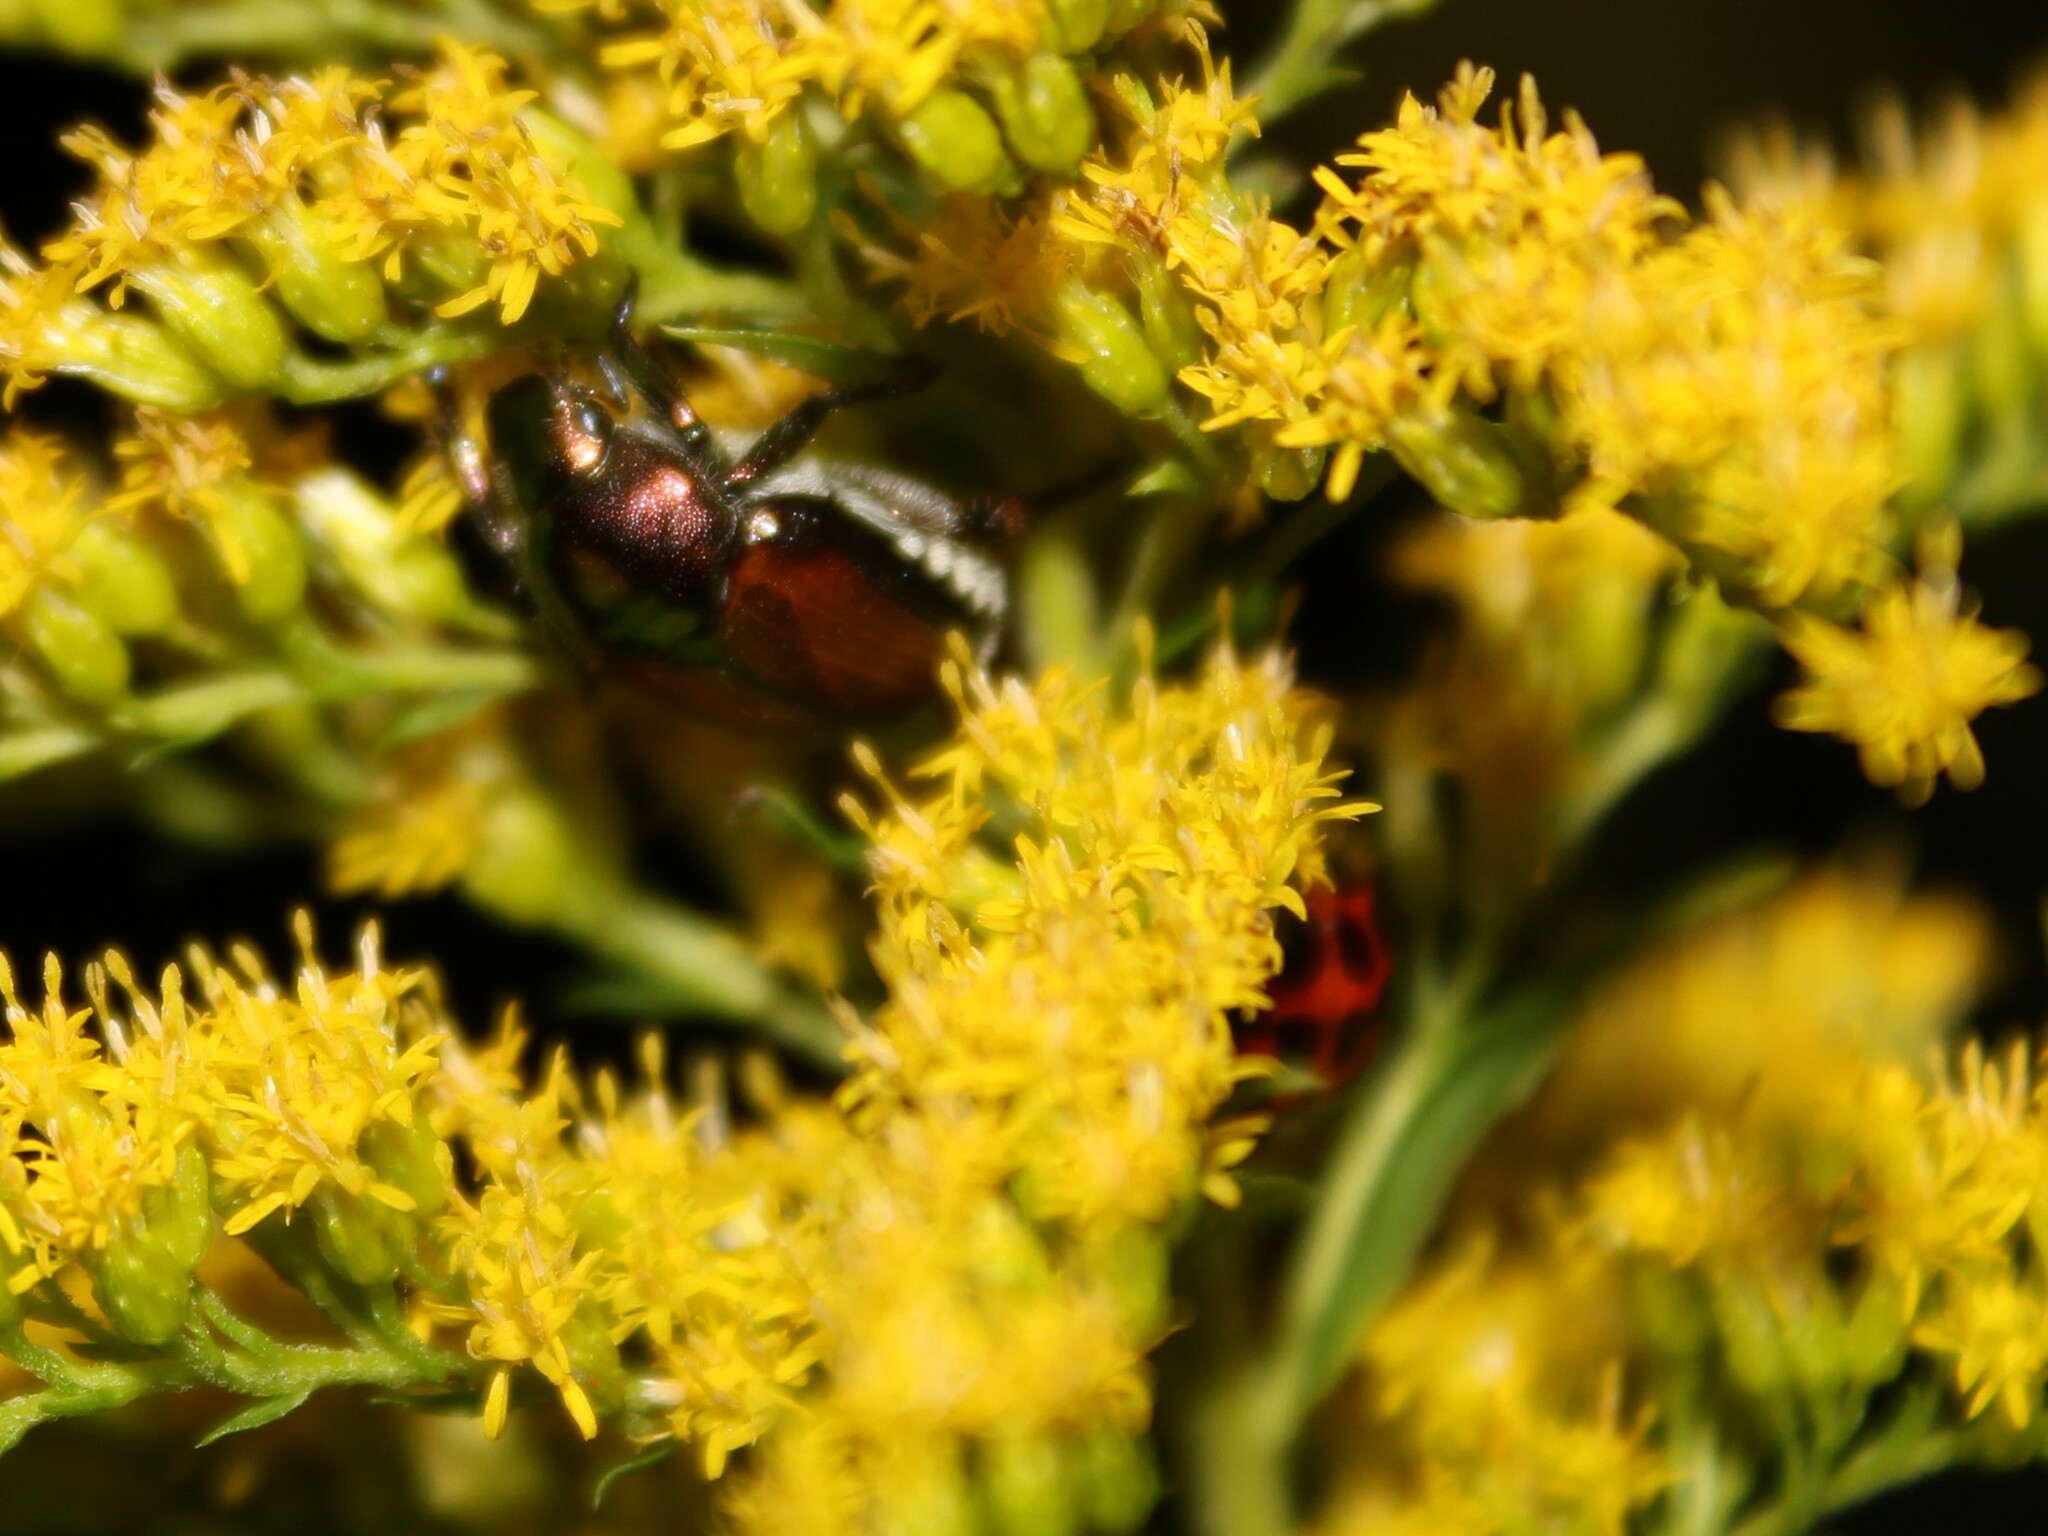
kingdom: Animalia
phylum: Arthropoda
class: Insecta
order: Coleoptera
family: Scarabaeidae
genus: Popillia
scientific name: Popillia japonica
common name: Japanese beetle
